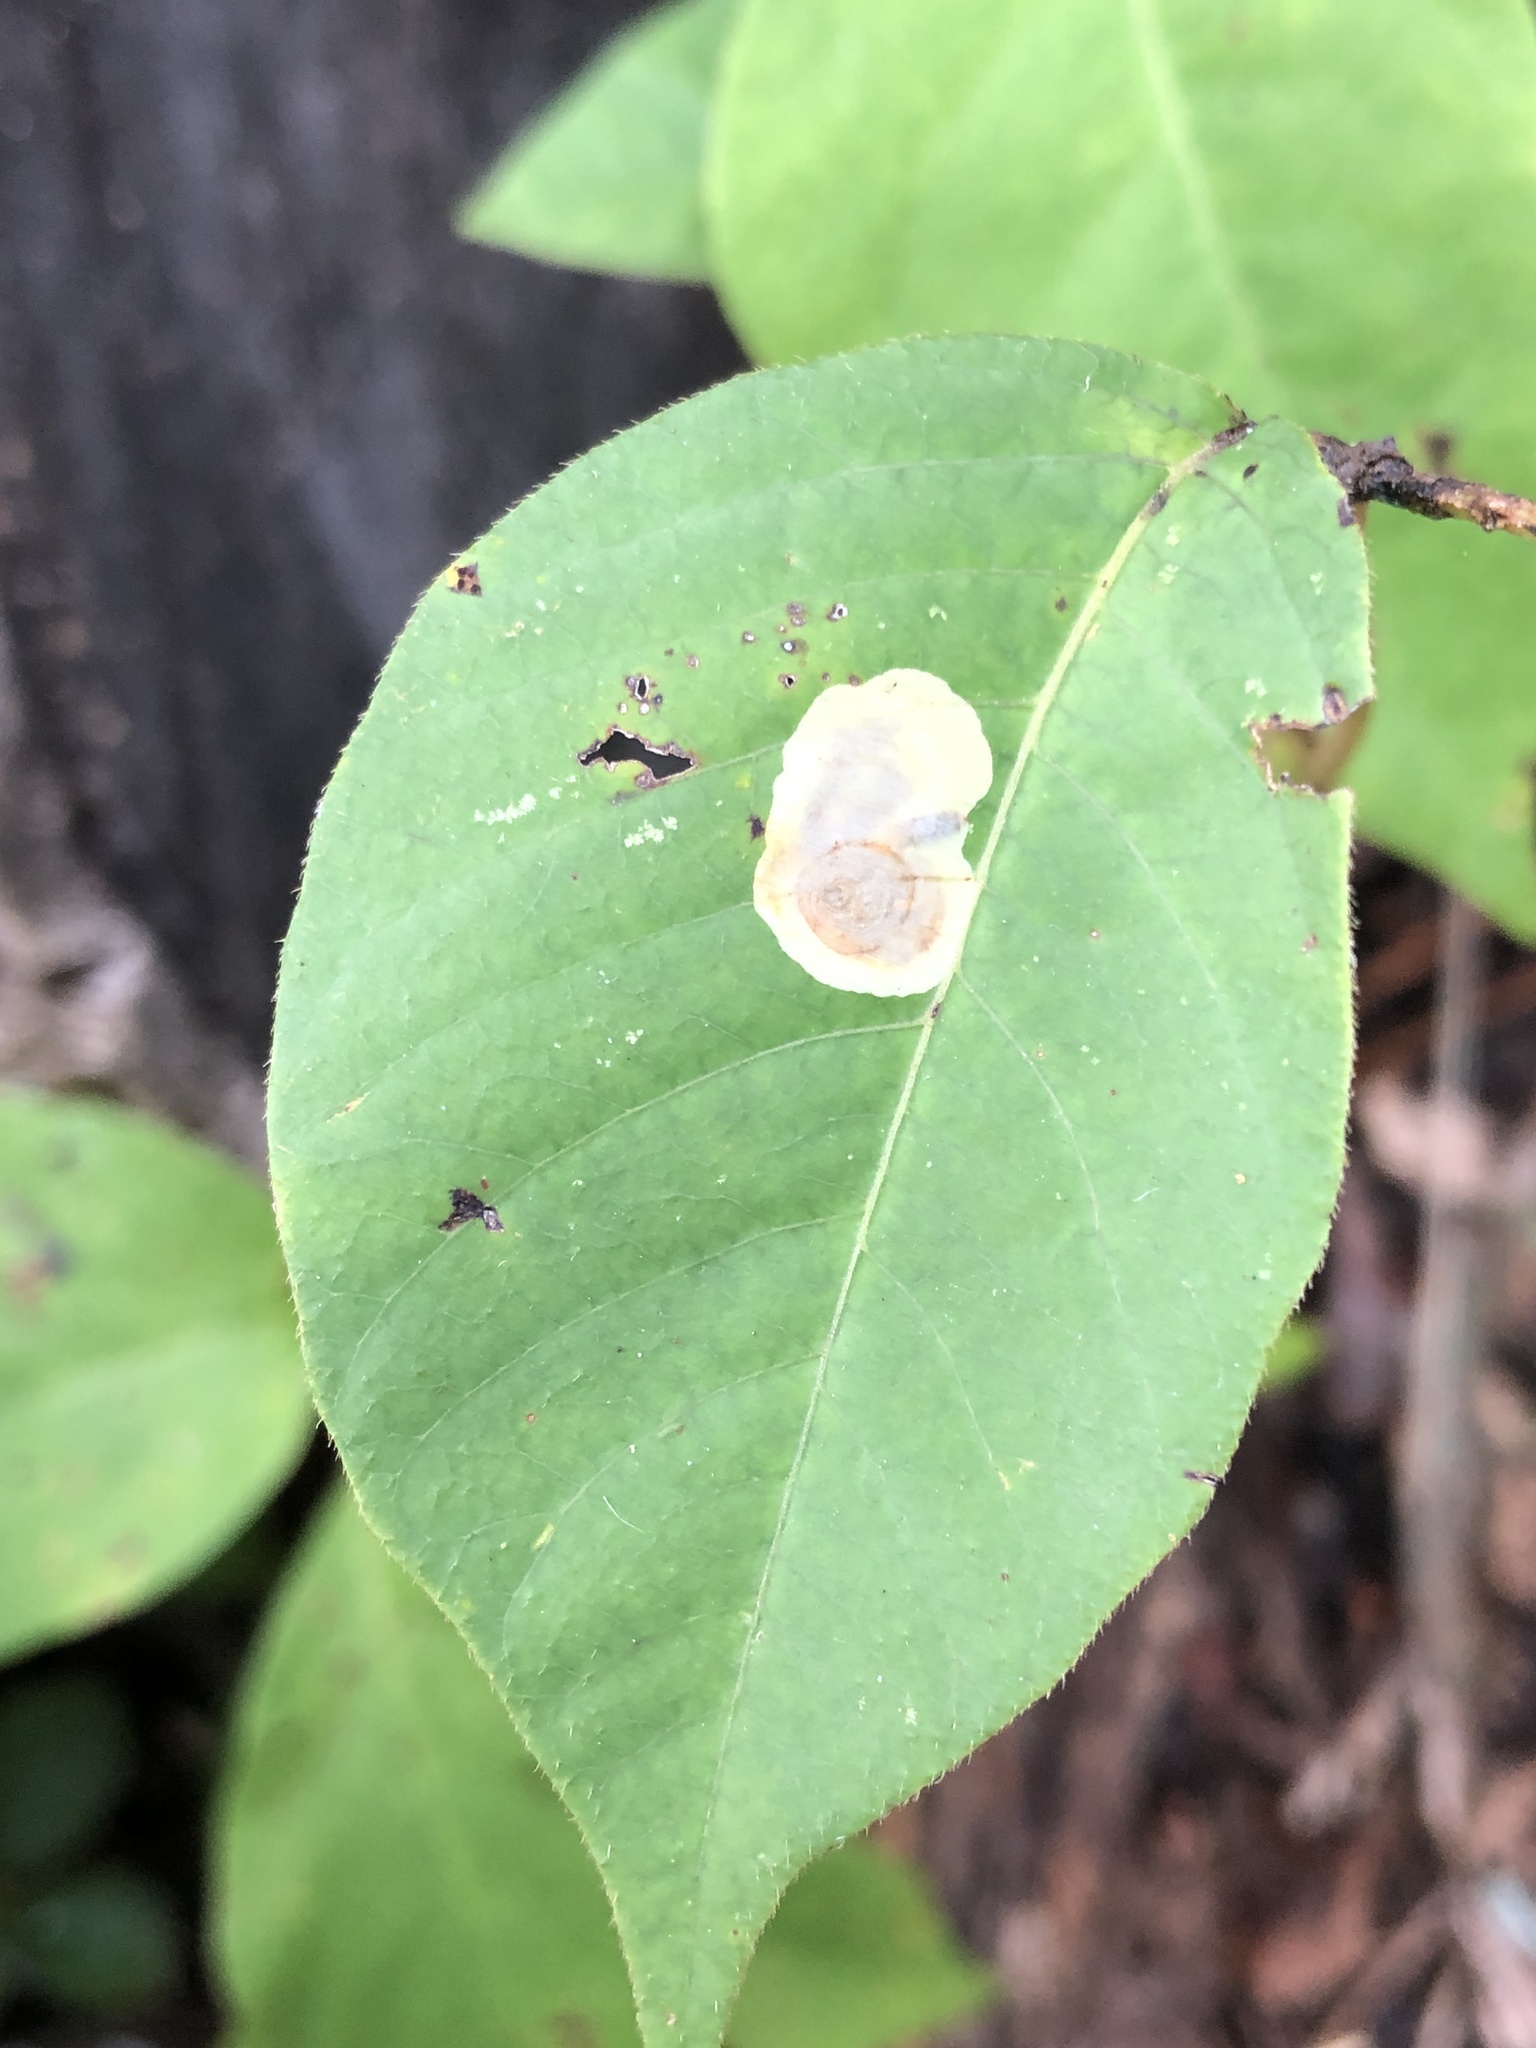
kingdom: Animalia
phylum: Arthropoda
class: Insecta
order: Lepidoptera
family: Gracillariidae
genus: Cameraria
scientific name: Cameraria guttifinitella
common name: Poison ivy leaf-miner moth
